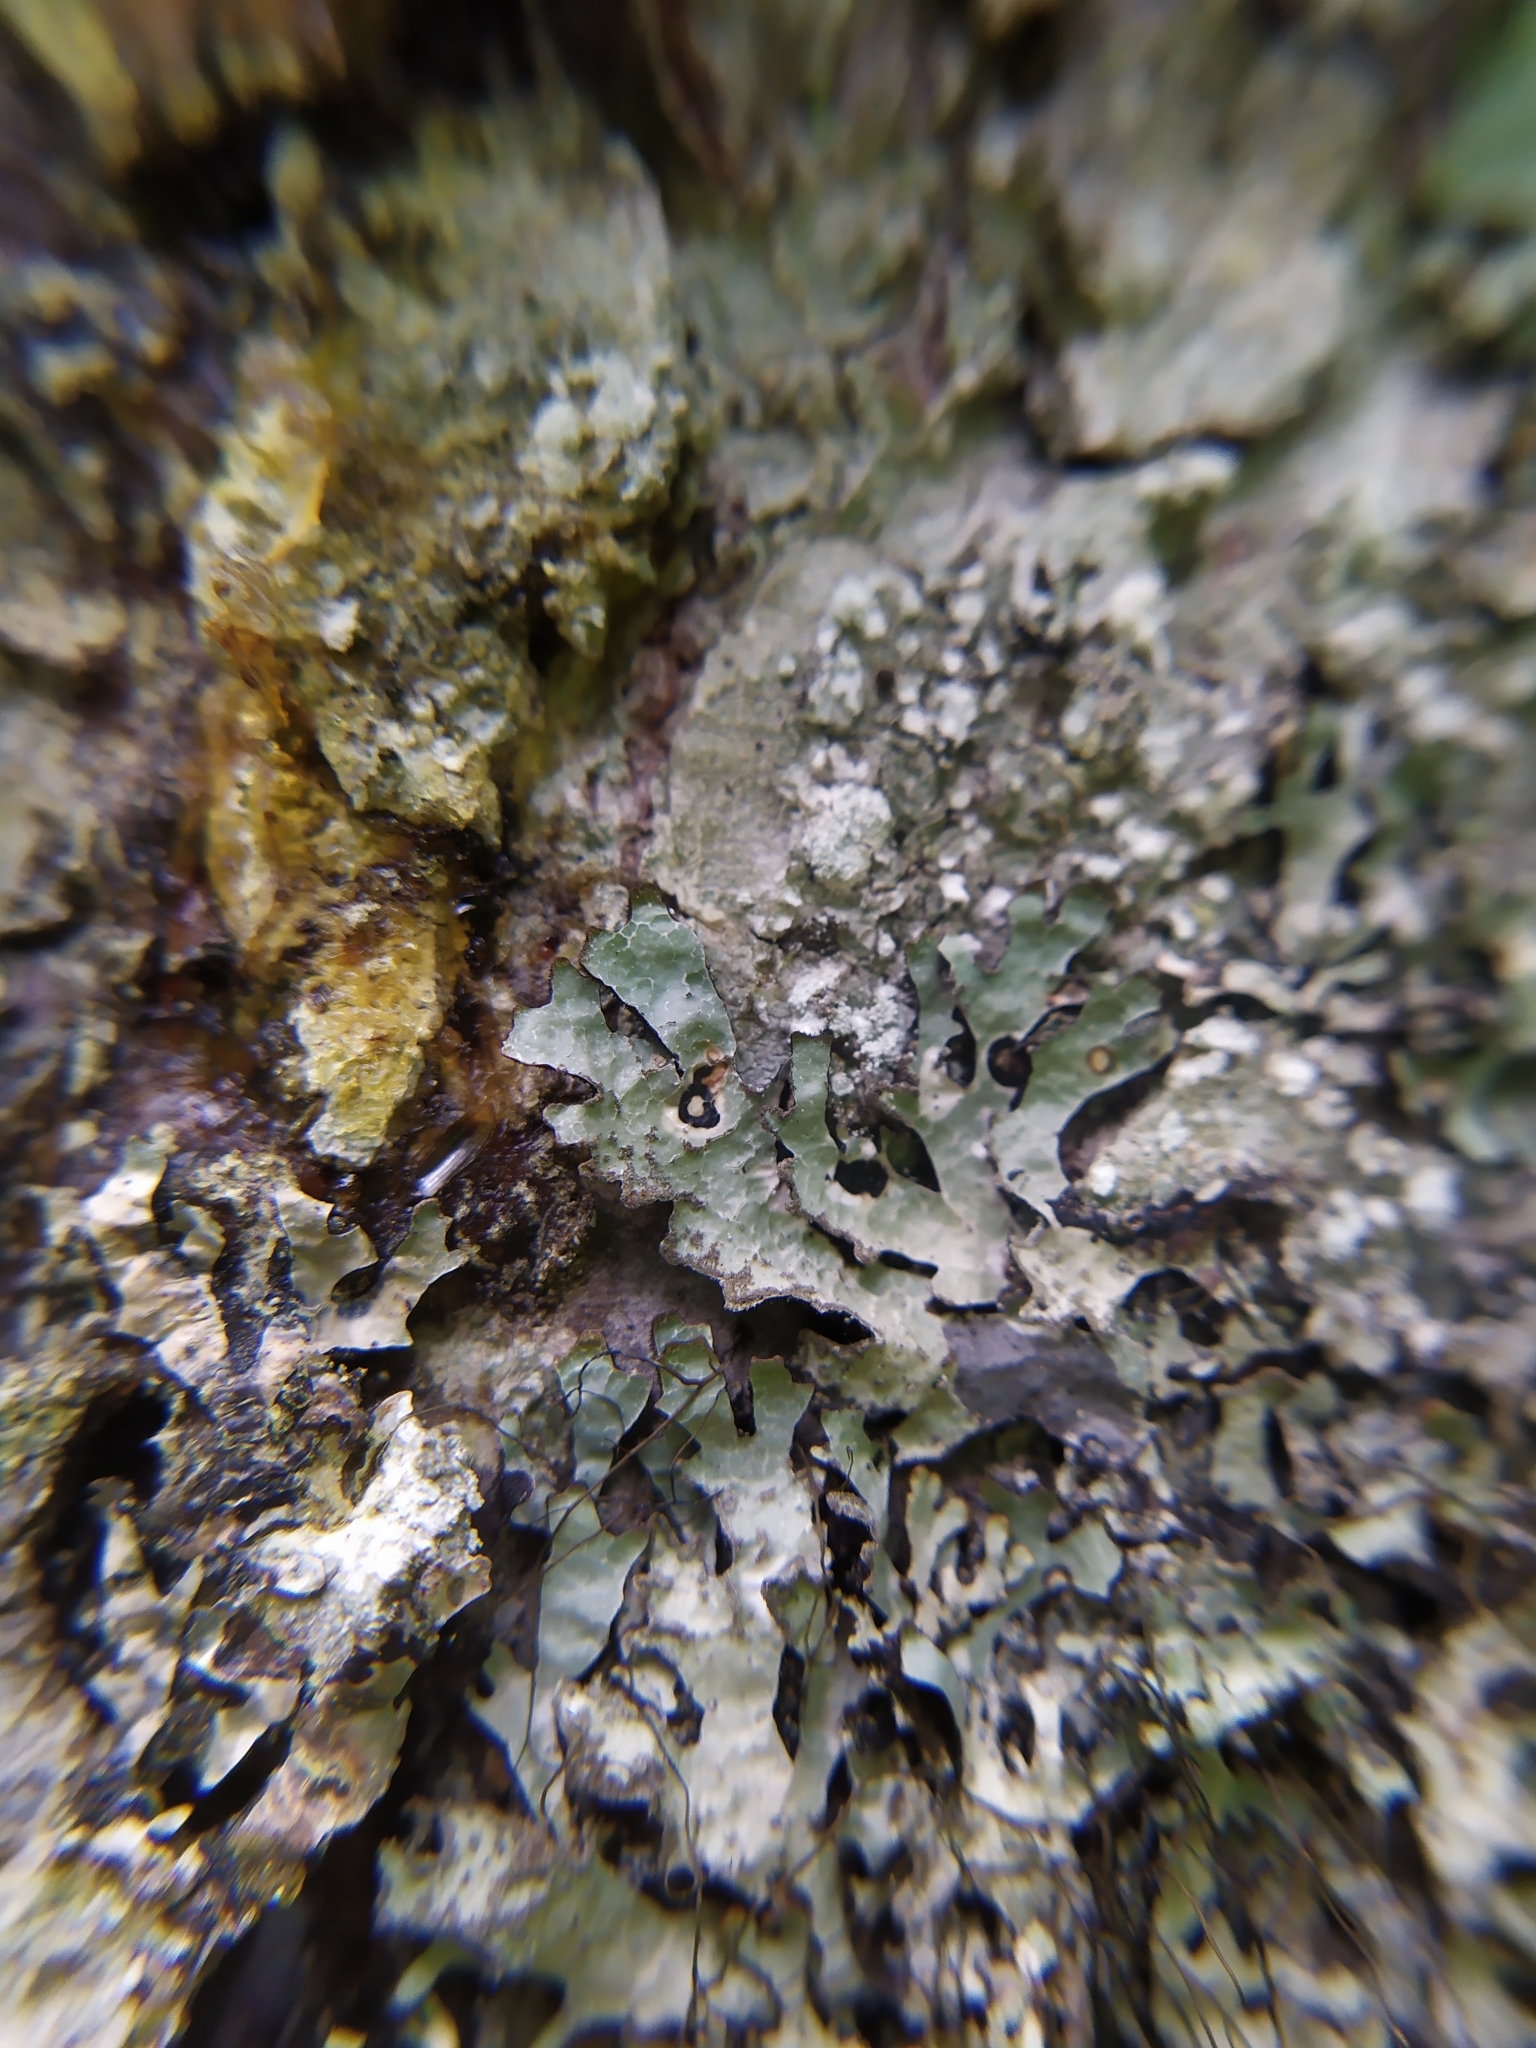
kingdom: Fungi
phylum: Ascomycota
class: Lecanoromycetes
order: Lecanorales
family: Parmeliaceae
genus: Parmelia
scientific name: Parmelia sulcata
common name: Netted shield lichen
